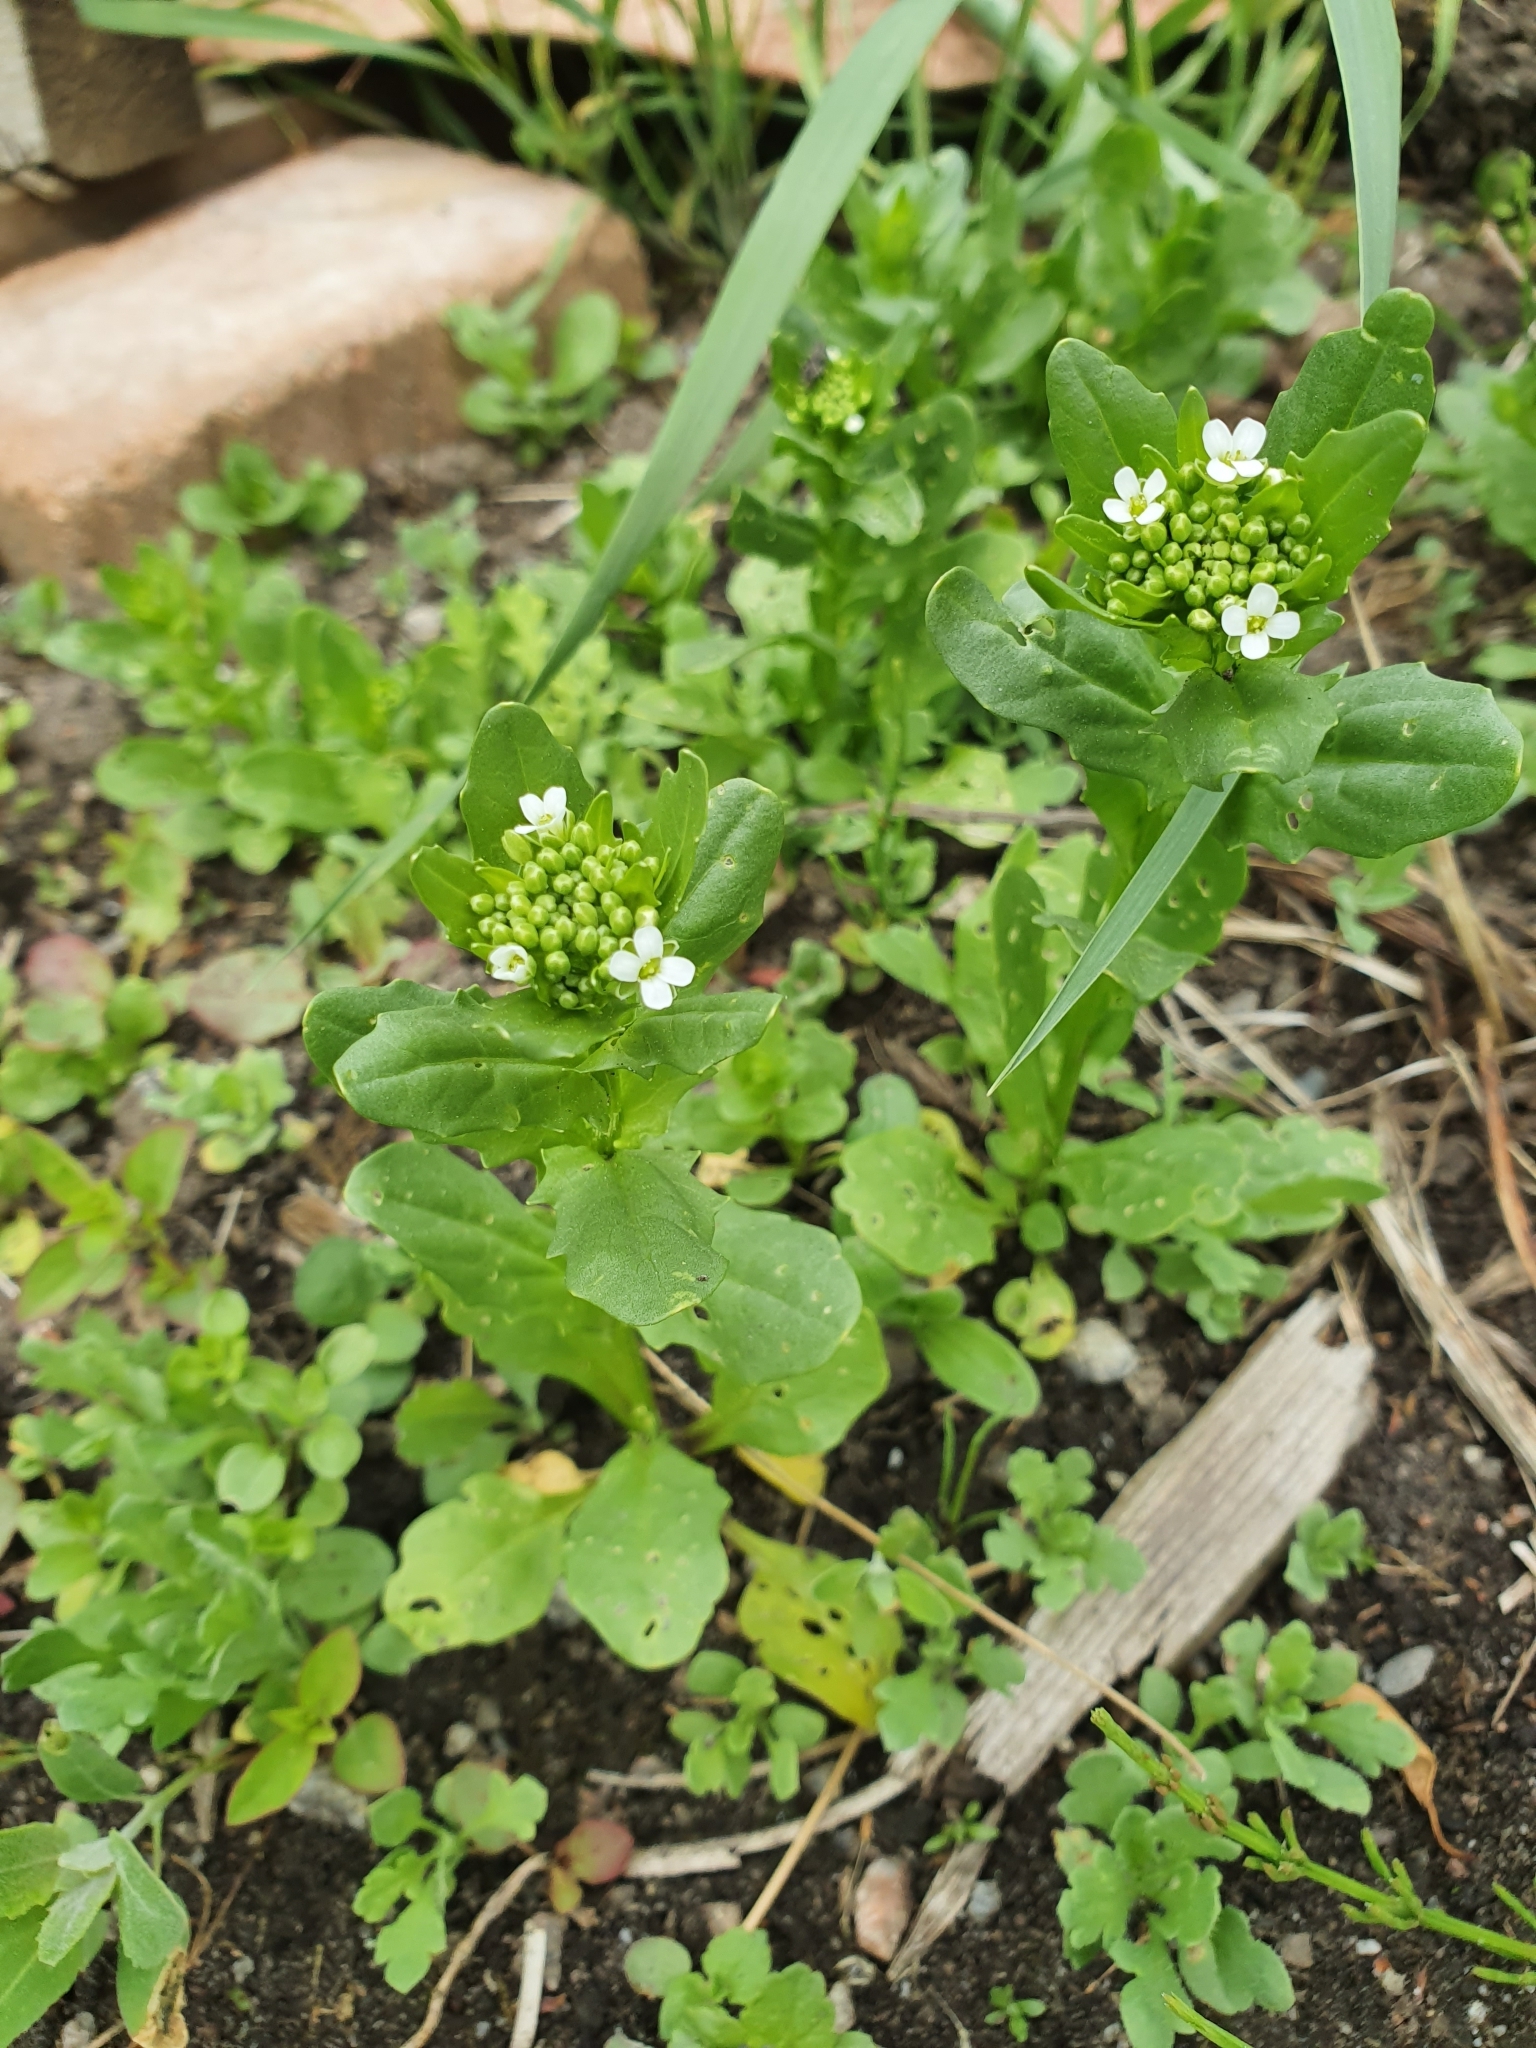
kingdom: Plantae
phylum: Tracheophyta
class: Magnoliopsida
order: Brassicales
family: Brassicaceae
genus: Thlaspi
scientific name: Thlaspi arvense
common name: Field pennycress
